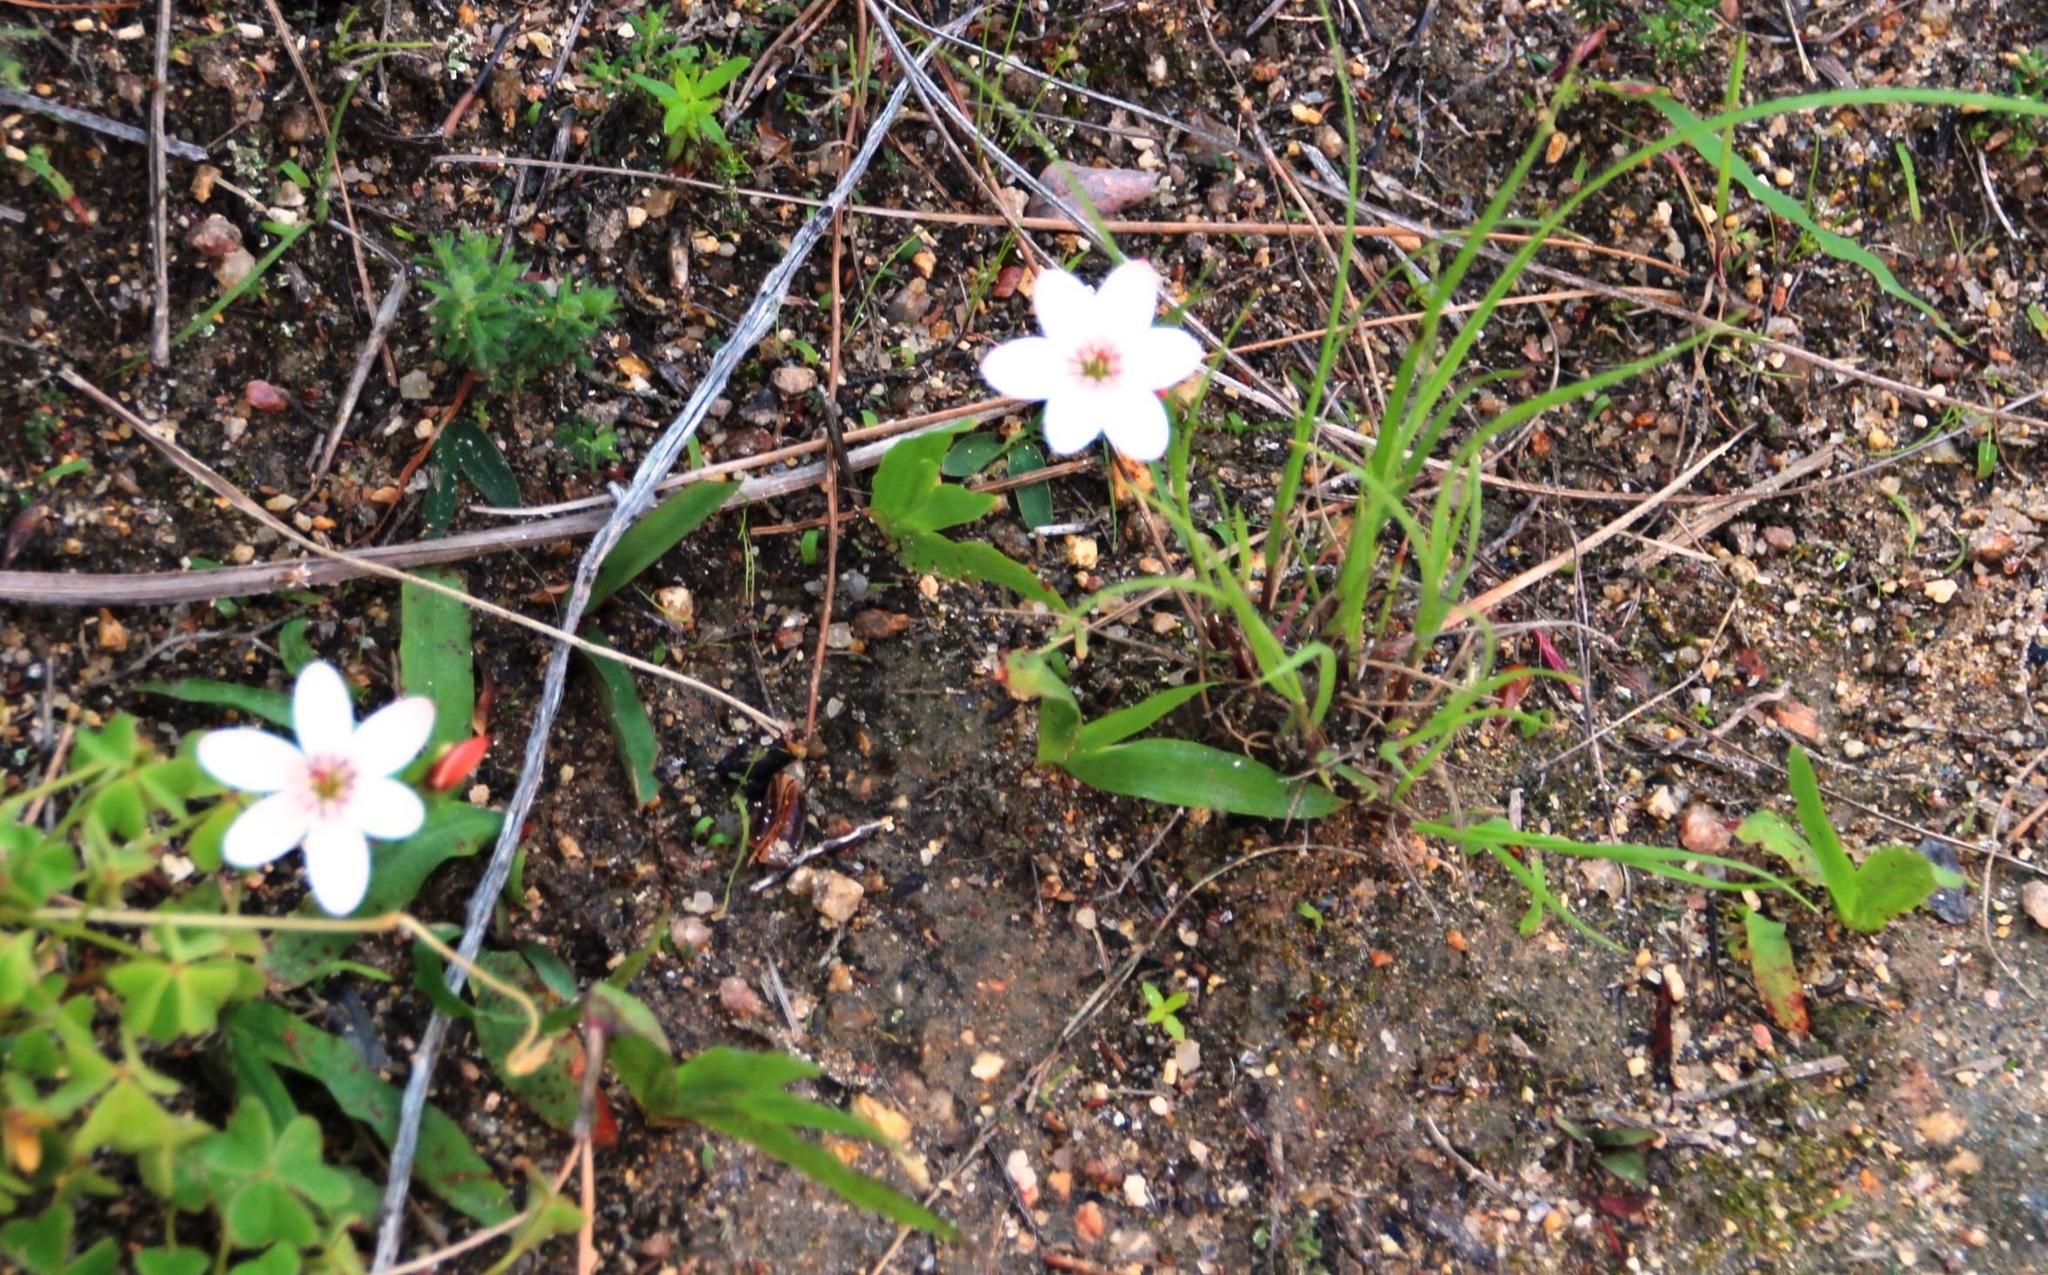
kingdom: Plantae
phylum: Tracheophyta
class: Liliopsida
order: Asparagales
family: Iridaceae
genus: Geissorhiza
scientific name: Geissorhiza ovata
